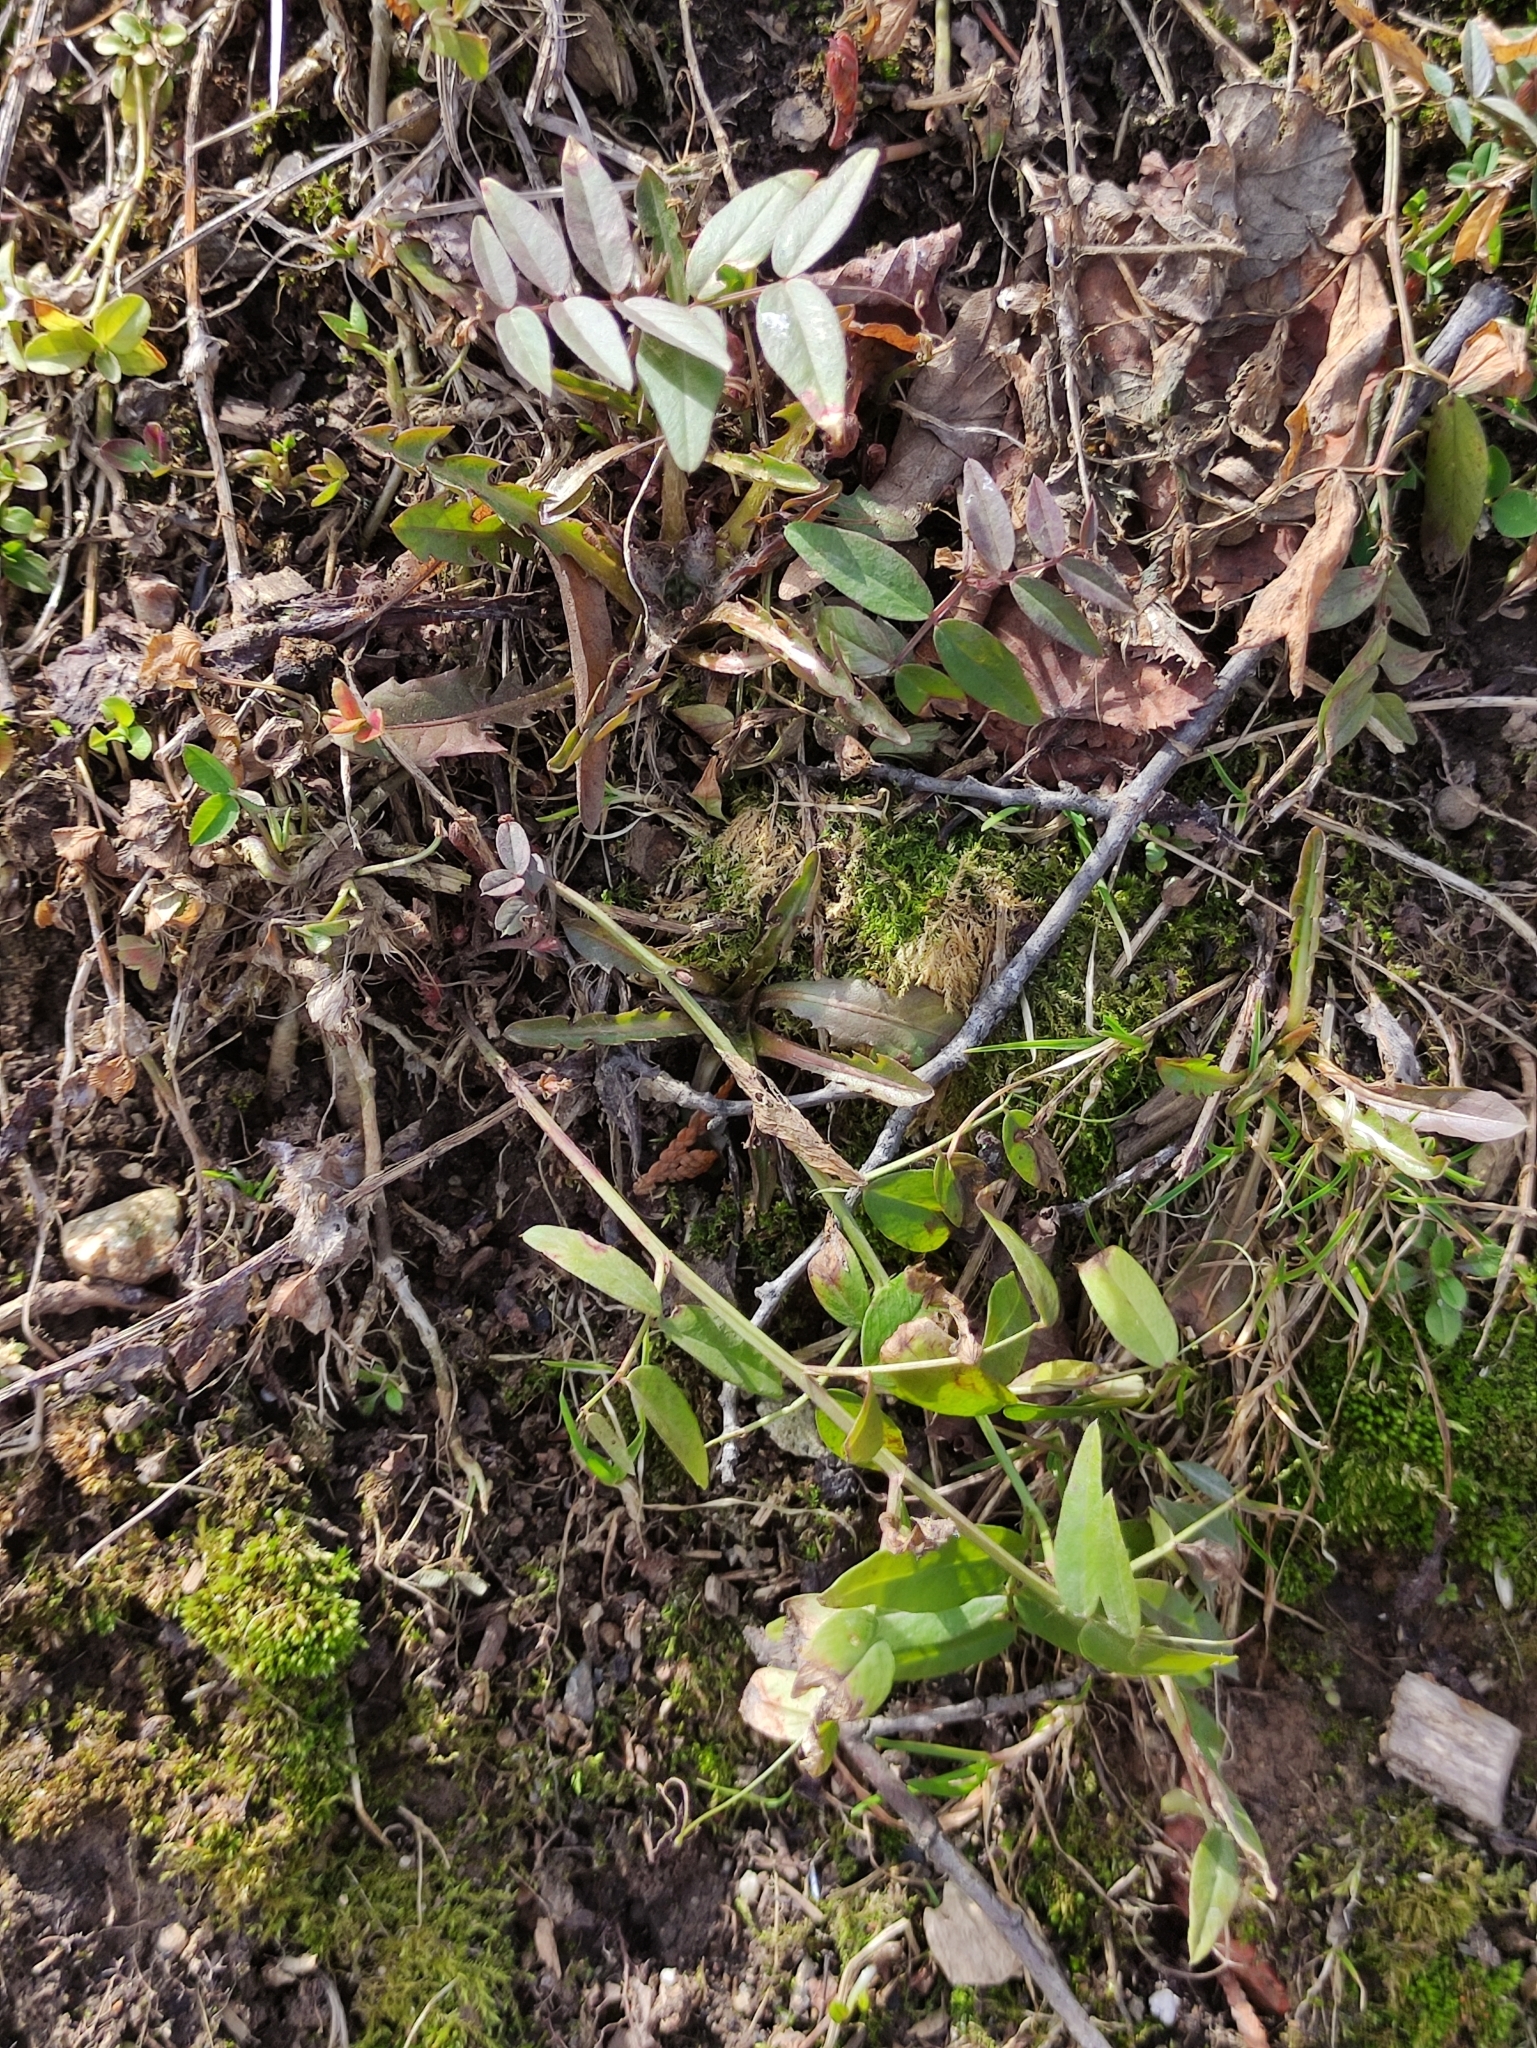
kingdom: Plantae
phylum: Tracheophyta
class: Magnoliopsida
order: Fabales
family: Fabaceae
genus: Vicia
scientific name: Vicia sepium
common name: Bush vetch
